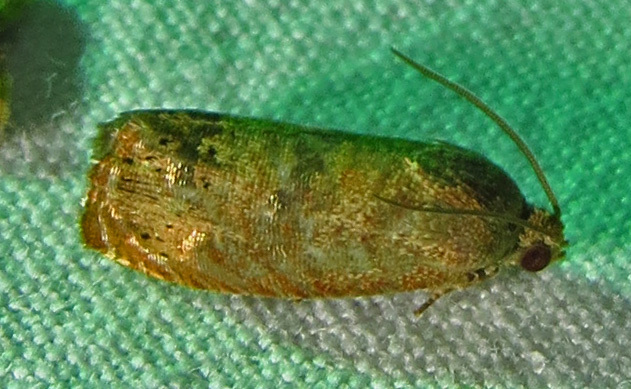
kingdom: Animalia
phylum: Arthropoda
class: Insecta
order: Lepidoptera
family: Tortricidae
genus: Cydia
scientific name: Cydia latiferreana
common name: Filbertworm moth
